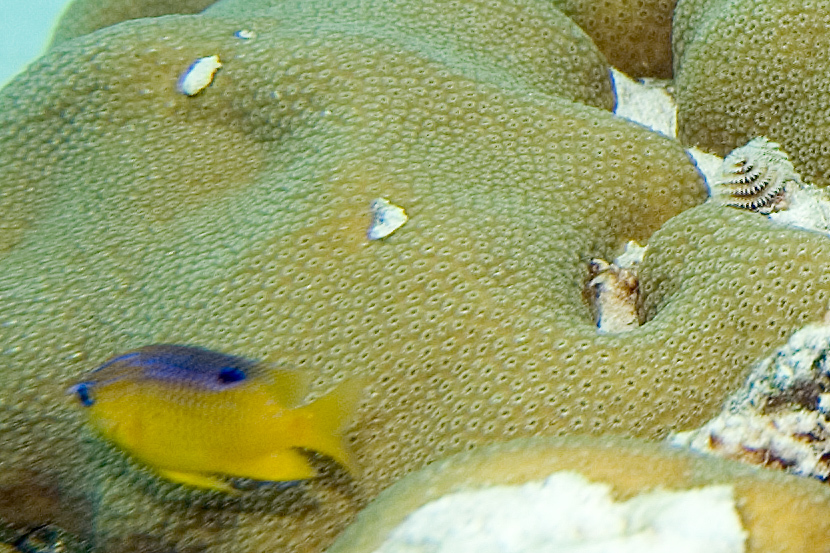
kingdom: Animalia
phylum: Chordata
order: Perciformes
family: Pomacentridae
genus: Stegastes
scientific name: Stegastes diencaeus
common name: Longfin damselfish
